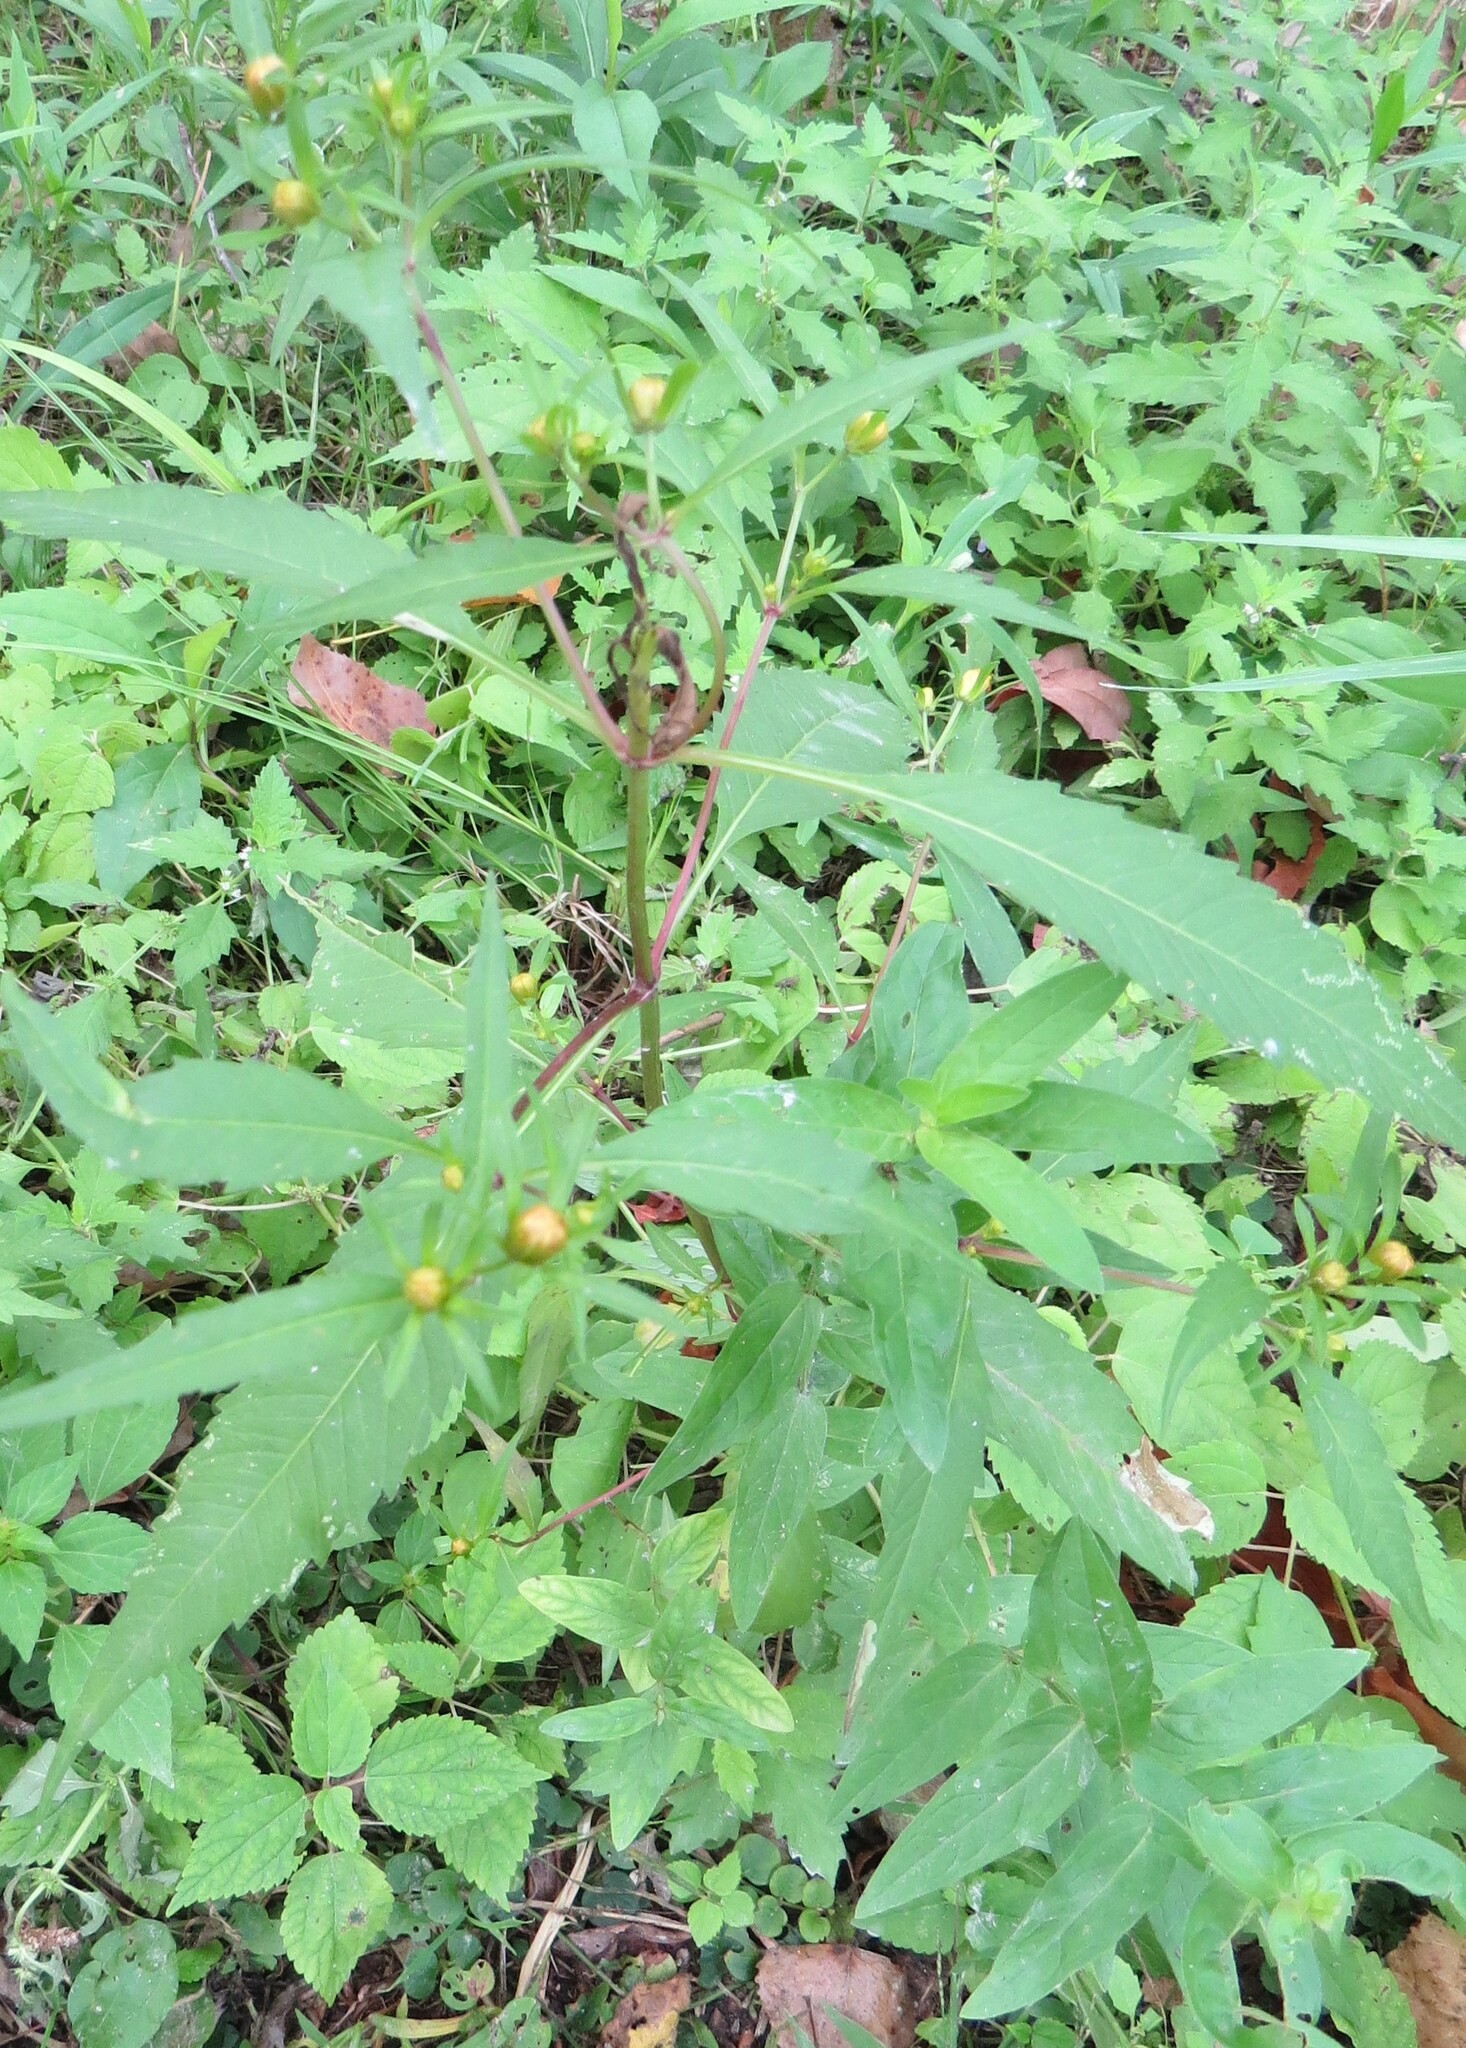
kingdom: Plantae
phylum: Tracheophyta
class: Magnoliopsida
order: Asterales
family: Asteraceae
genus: Bidens
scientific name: Bidens connata
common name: London bur-marigold
